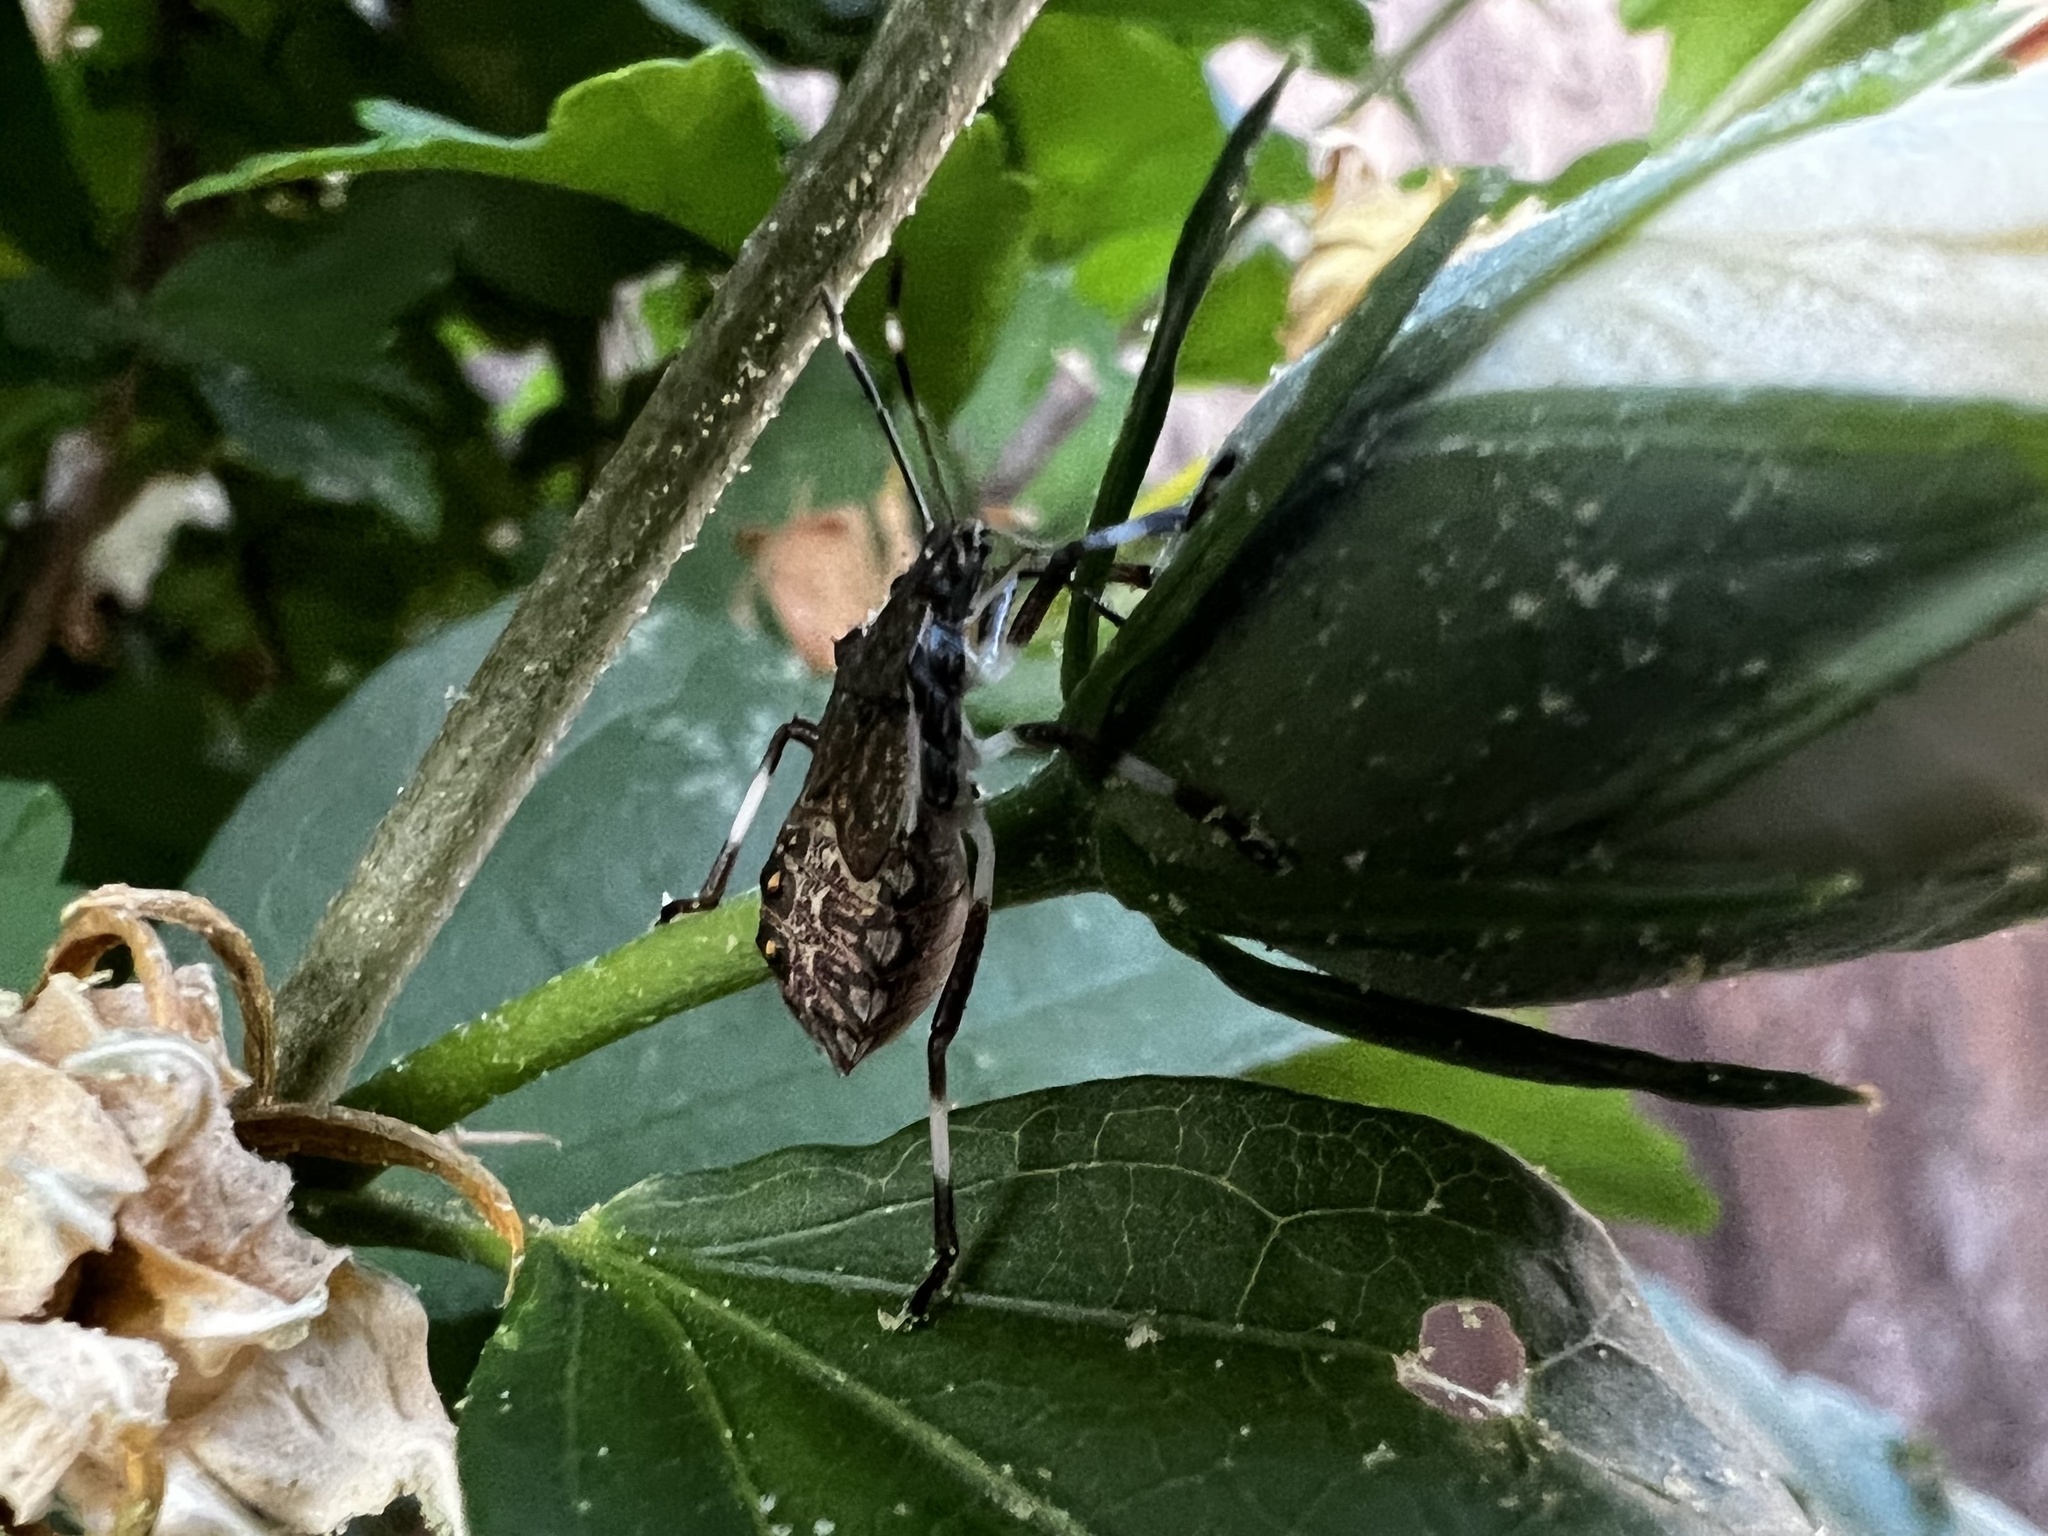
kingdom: Animalia
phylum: Arthropoda
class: Insecta
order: Hemiptera
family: Pentatomidae
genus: Halyomorpha
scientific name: Halyomorpha halys
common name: Brown marmorated stink bug
